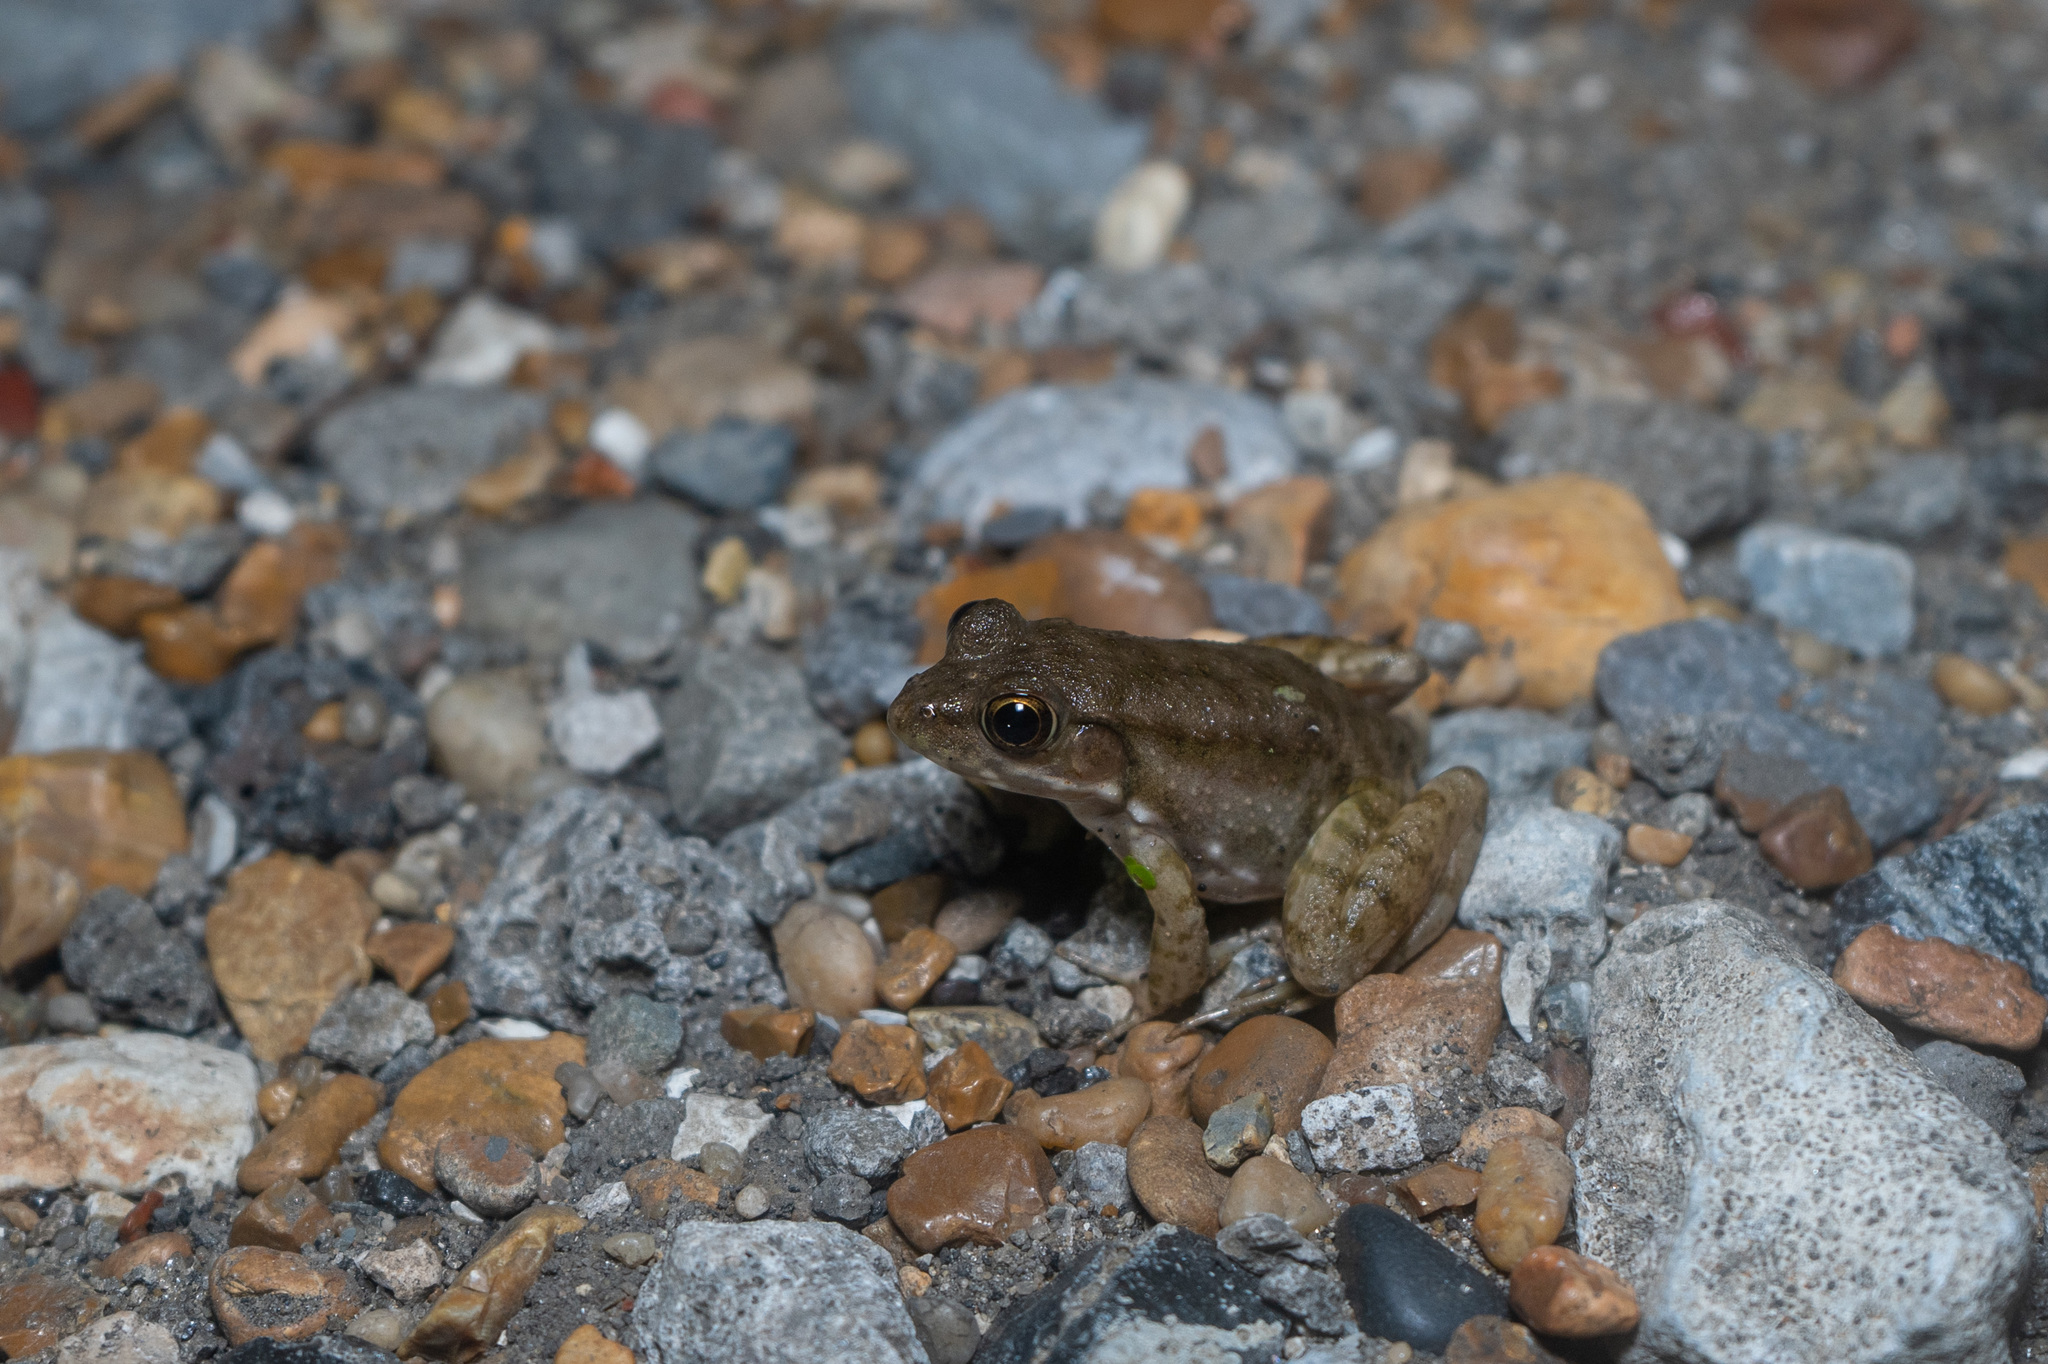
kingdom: Animalia
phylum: Chordata
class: Amphibia
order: Anura
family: Ranidae
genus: Lithobates
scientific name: Lithobates clamitans
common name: Green frog
